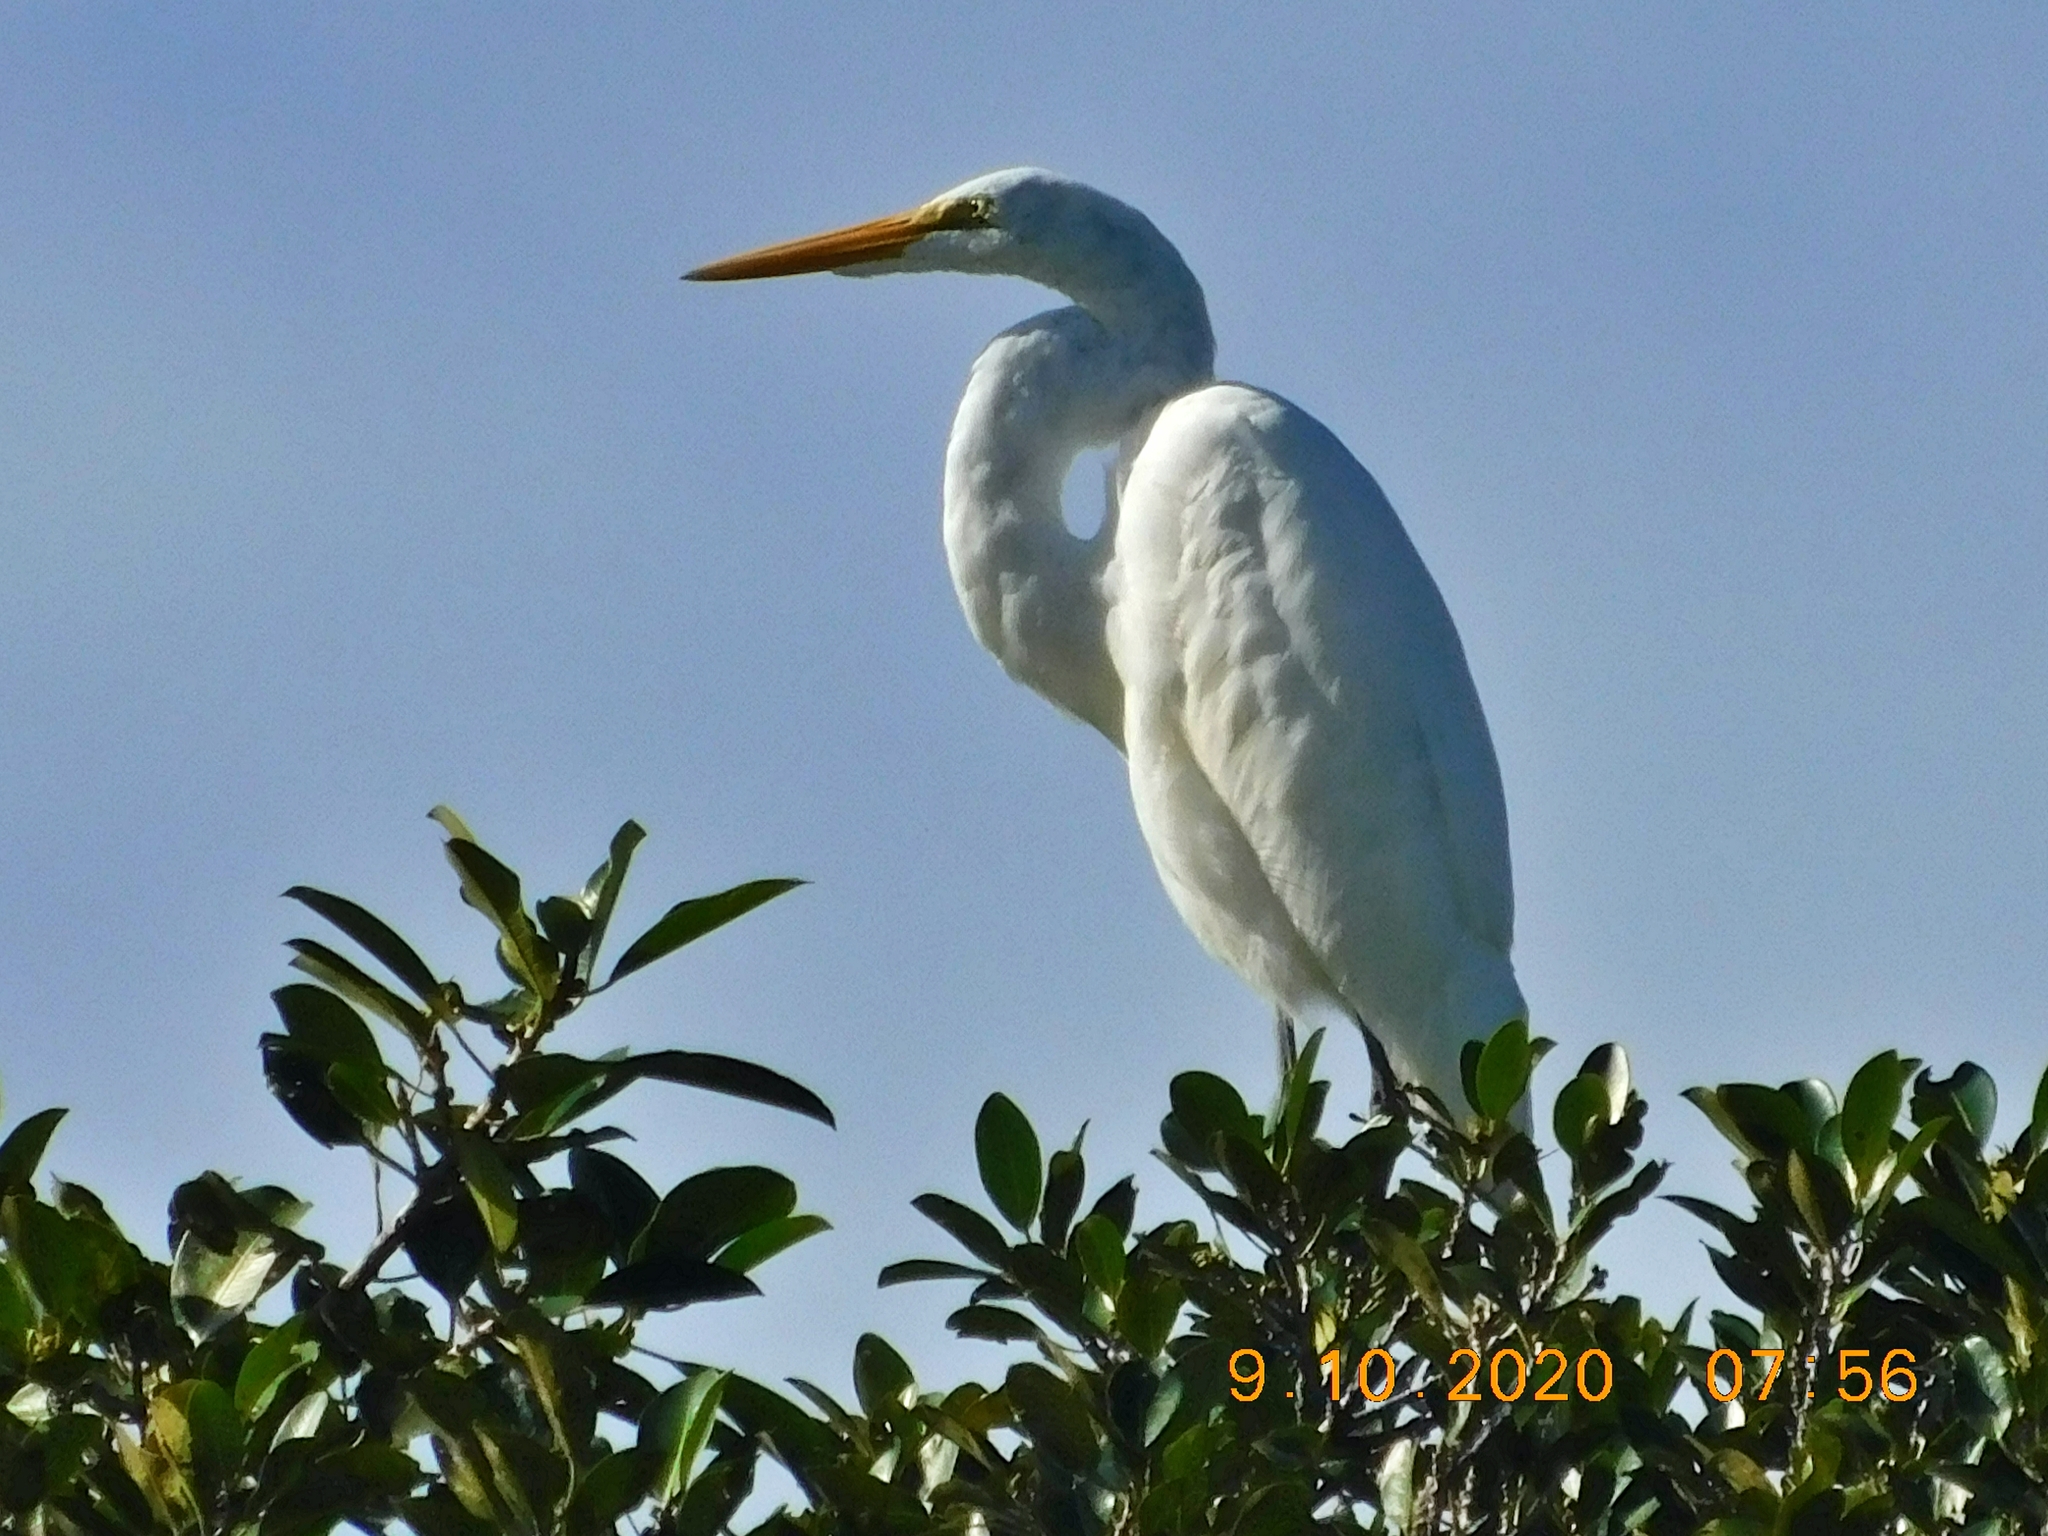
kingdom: Animalia
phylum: Chordata
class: Aves
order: Pelecaniformes
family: Ardeidae
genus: Ardea
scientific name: Ardea alba
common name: Great egret
